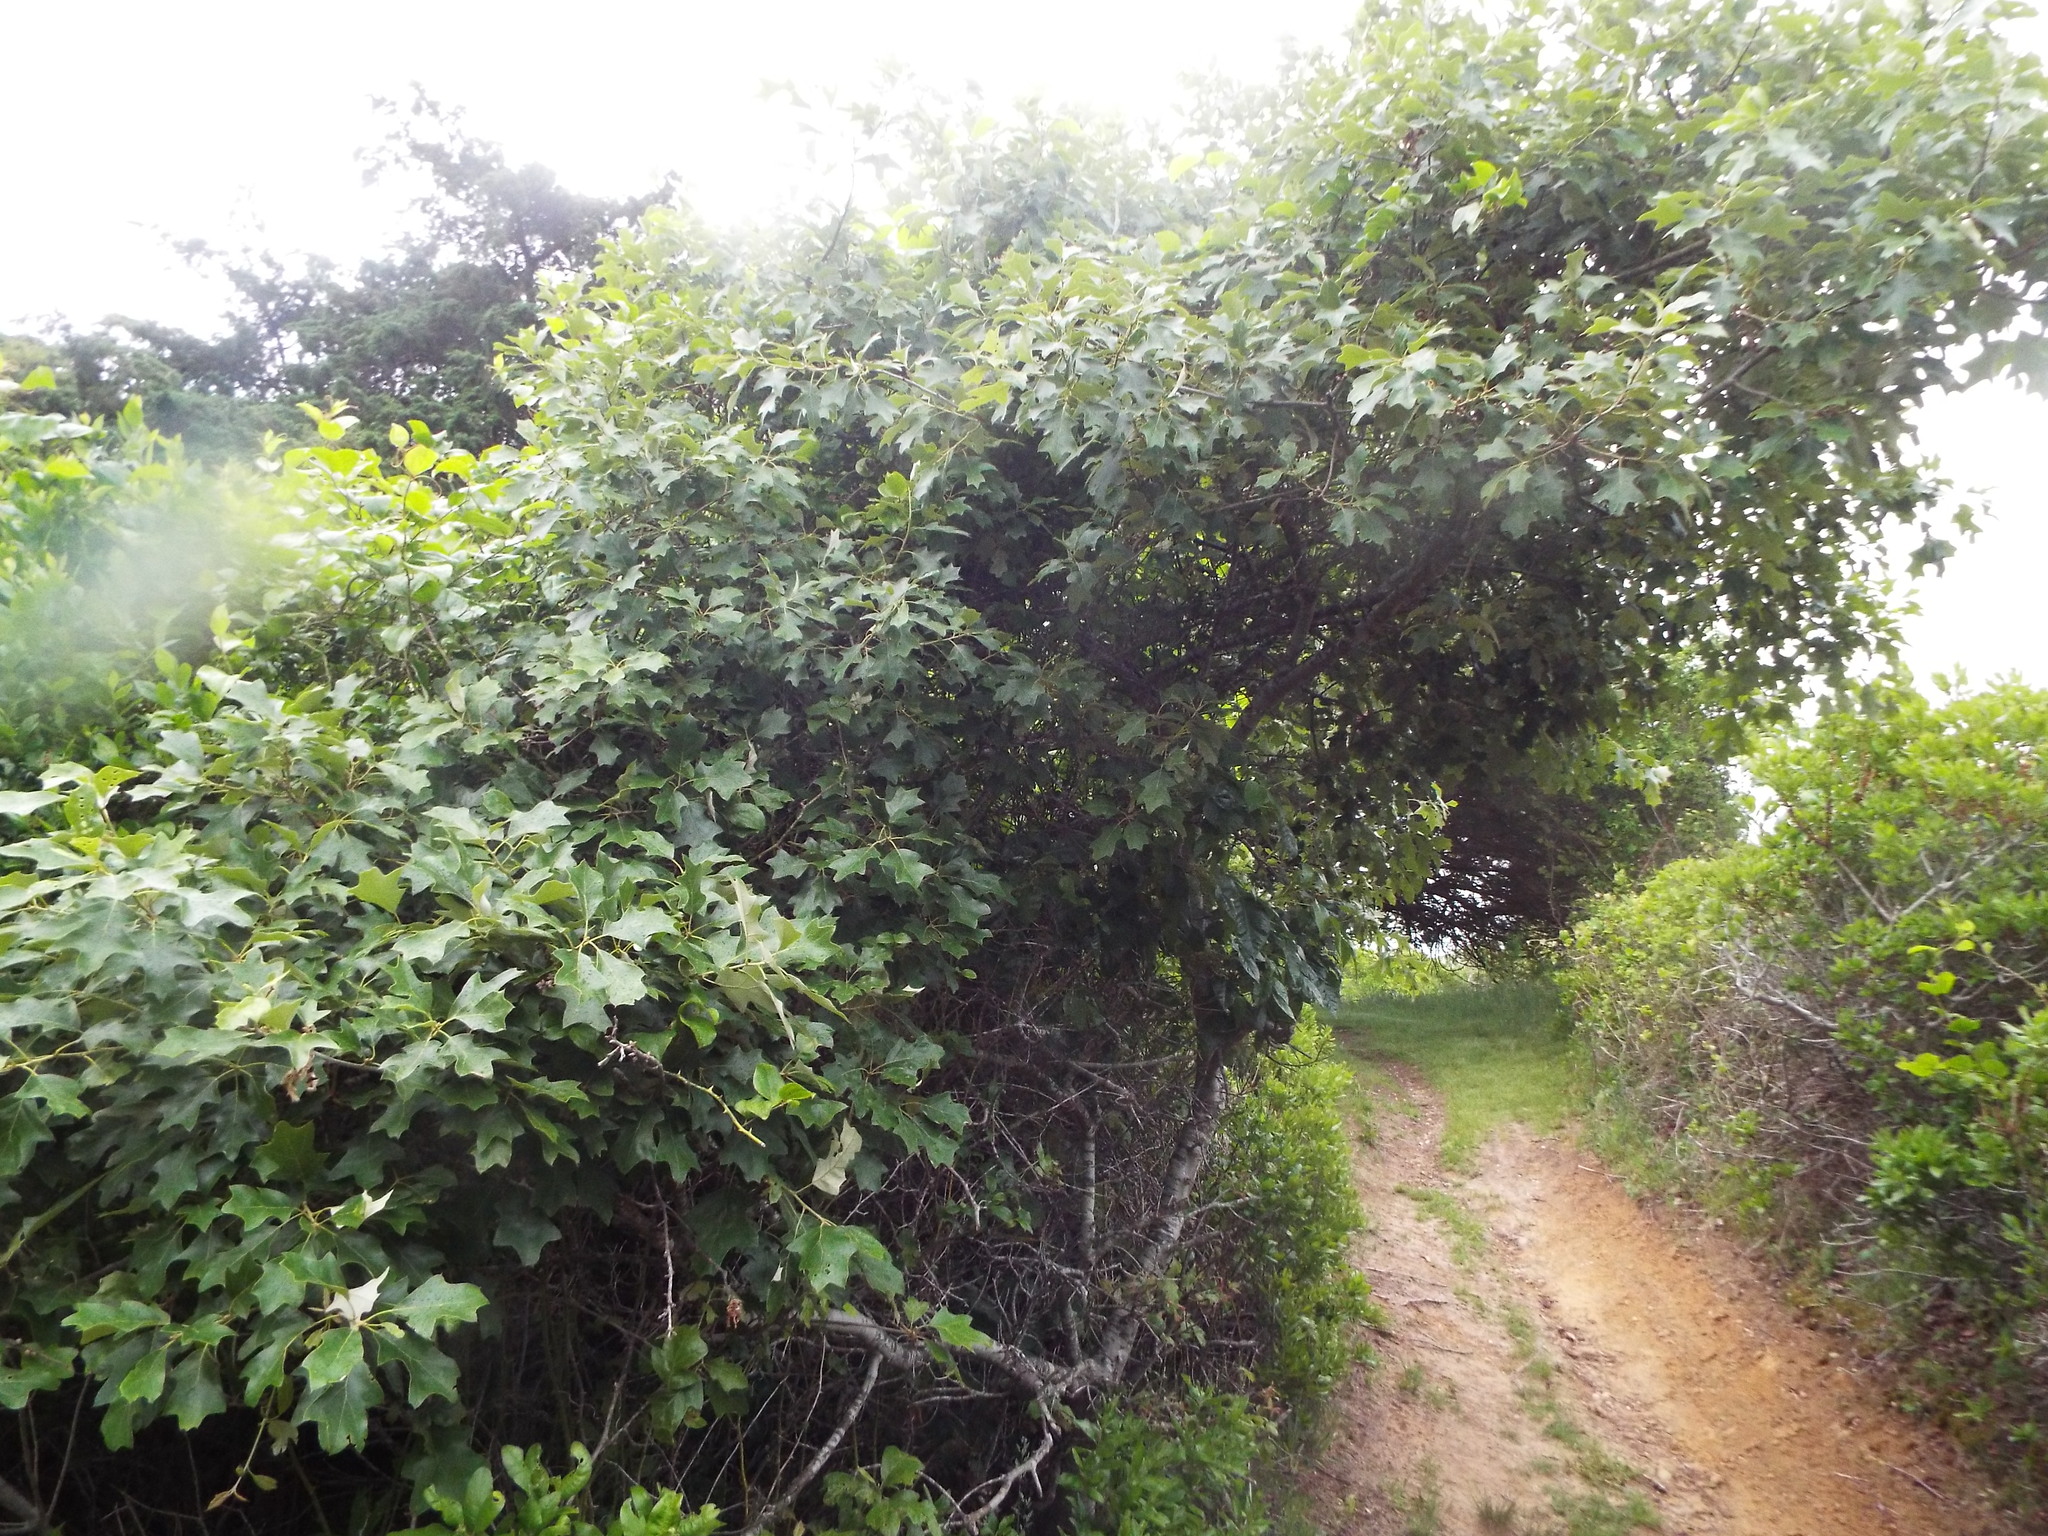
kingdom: Plantae
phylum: Tracheophyta
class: Magnoliopsida
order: Fagales
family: Fagaceae
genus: Quercus
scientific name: Quercus ilicifolia
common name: Bear oak
